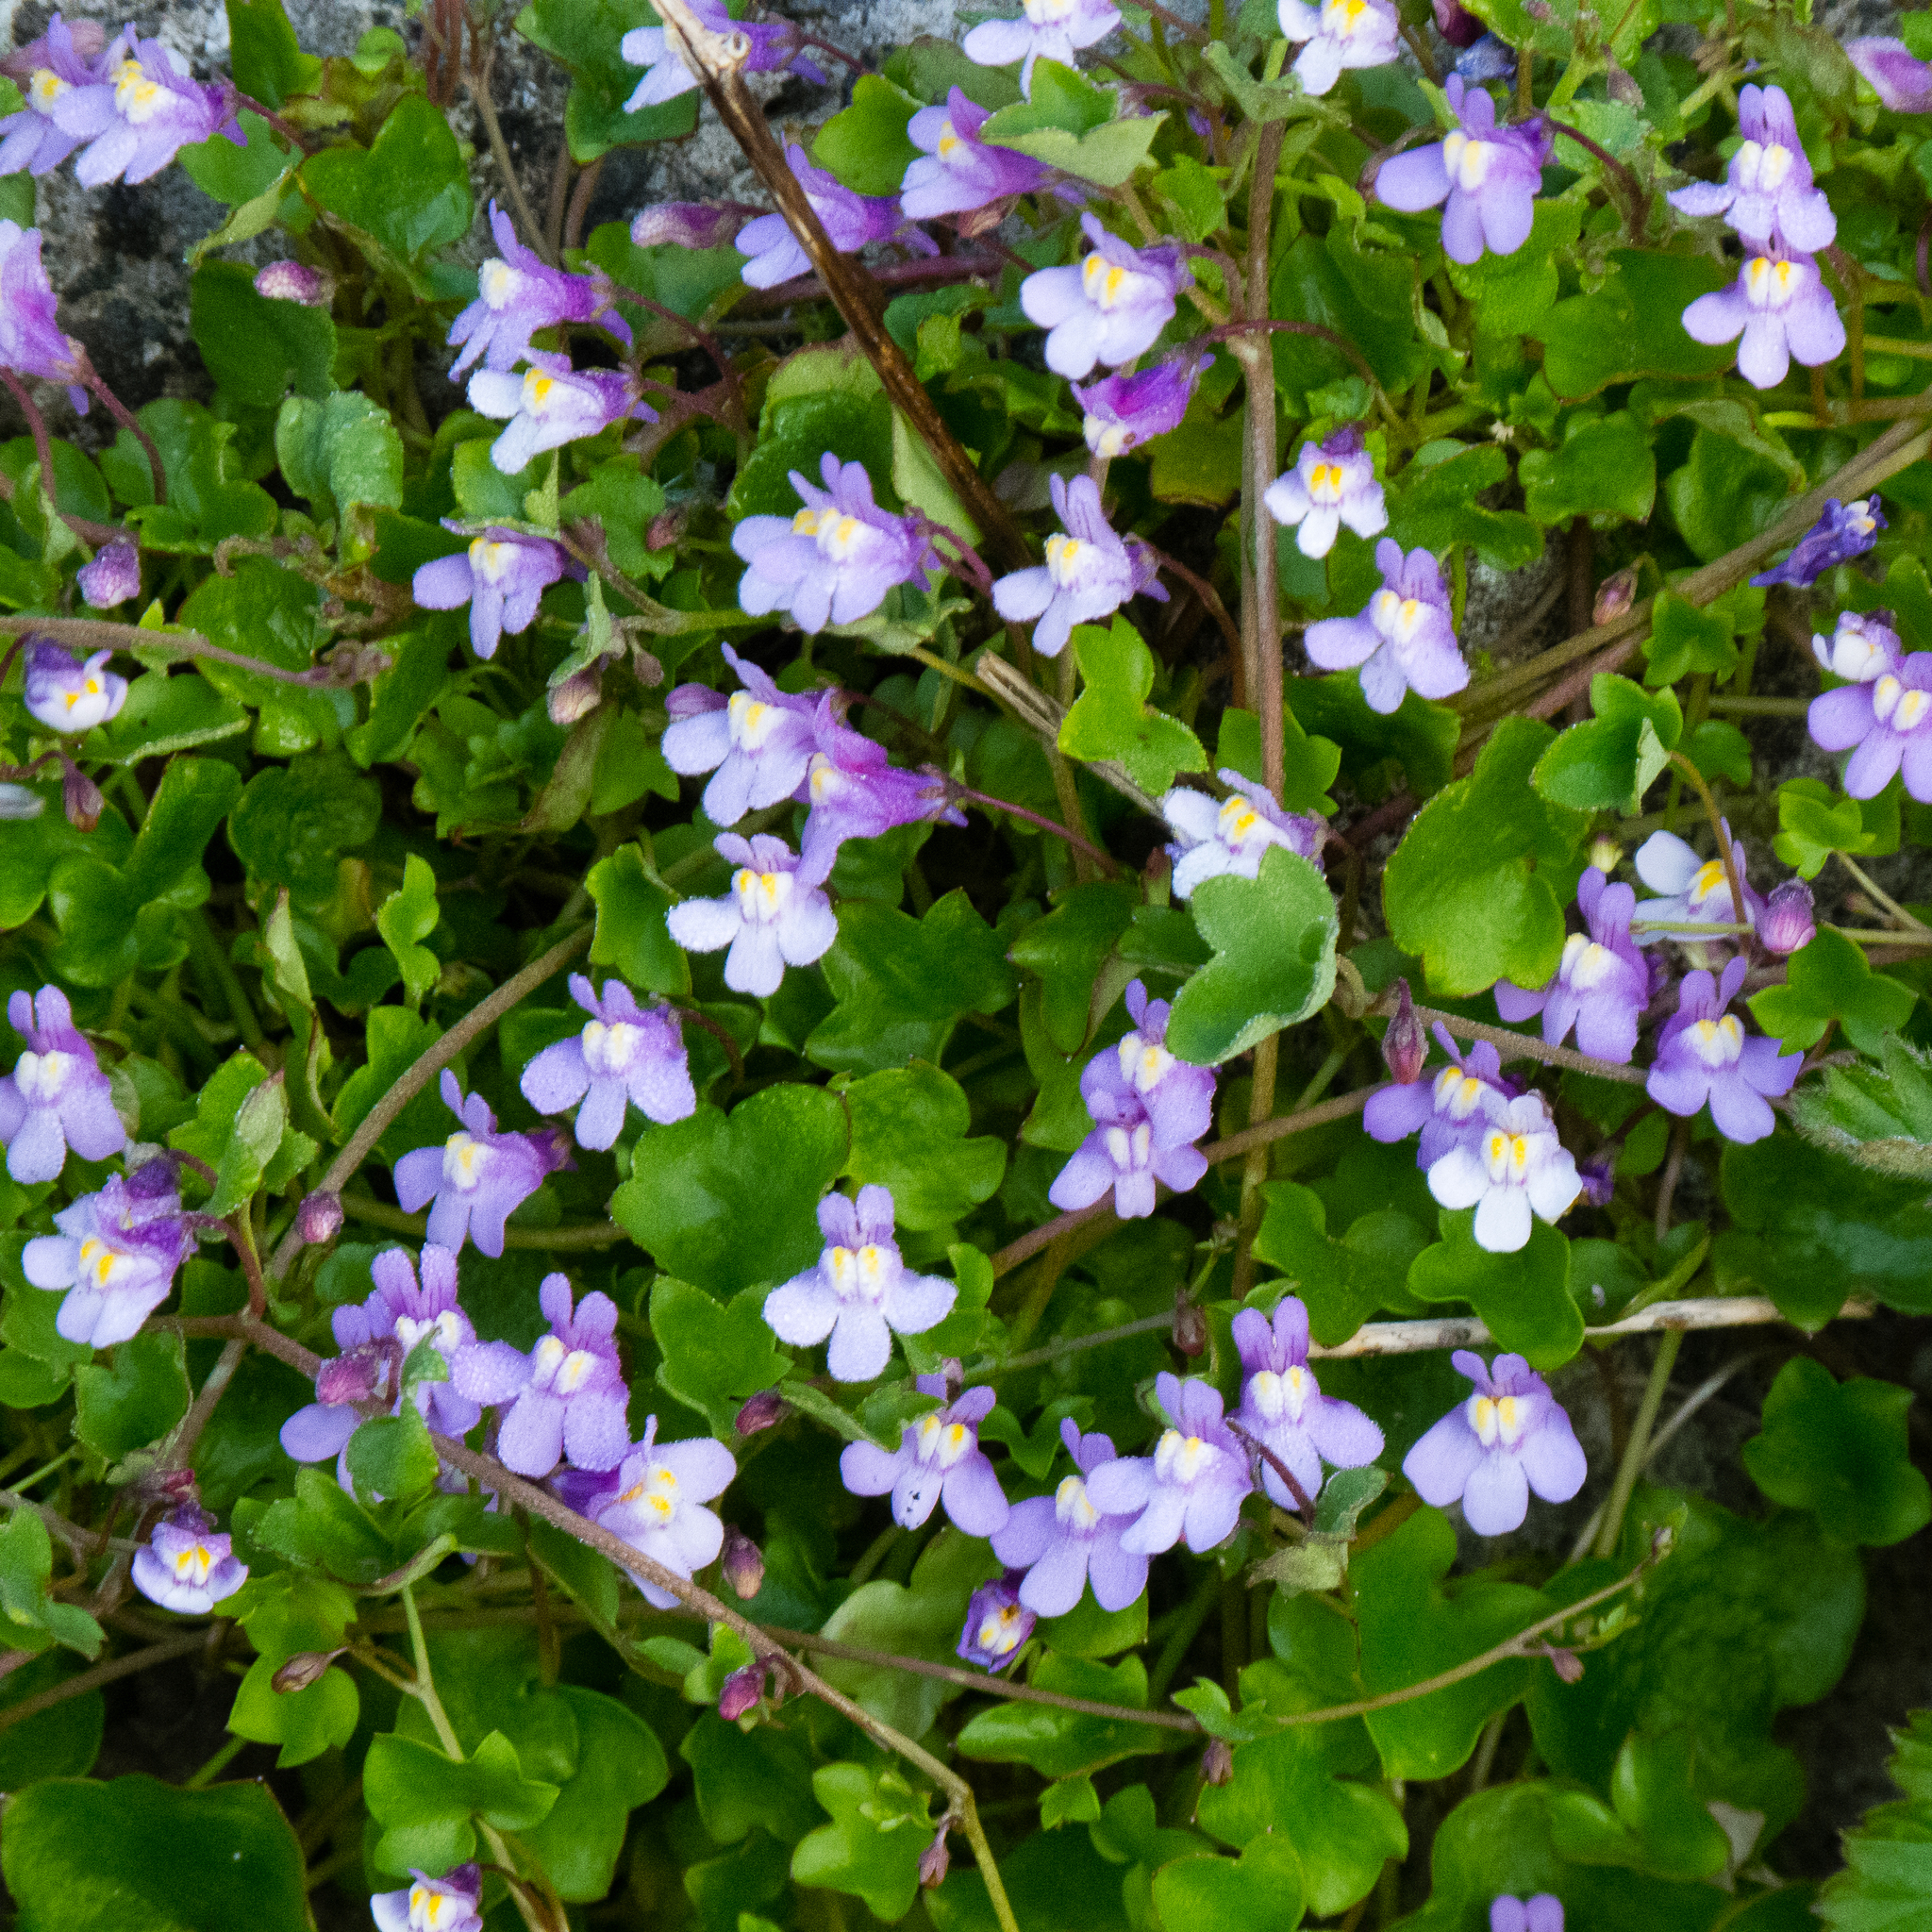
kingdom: Plantae
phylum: Tracheophyta
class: Magnoliopsida
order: Lamiales
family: Plantaginaceae
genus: Cymbalaria
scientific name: Cymbalaria muralis
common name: Ivy-leaved toadflax
